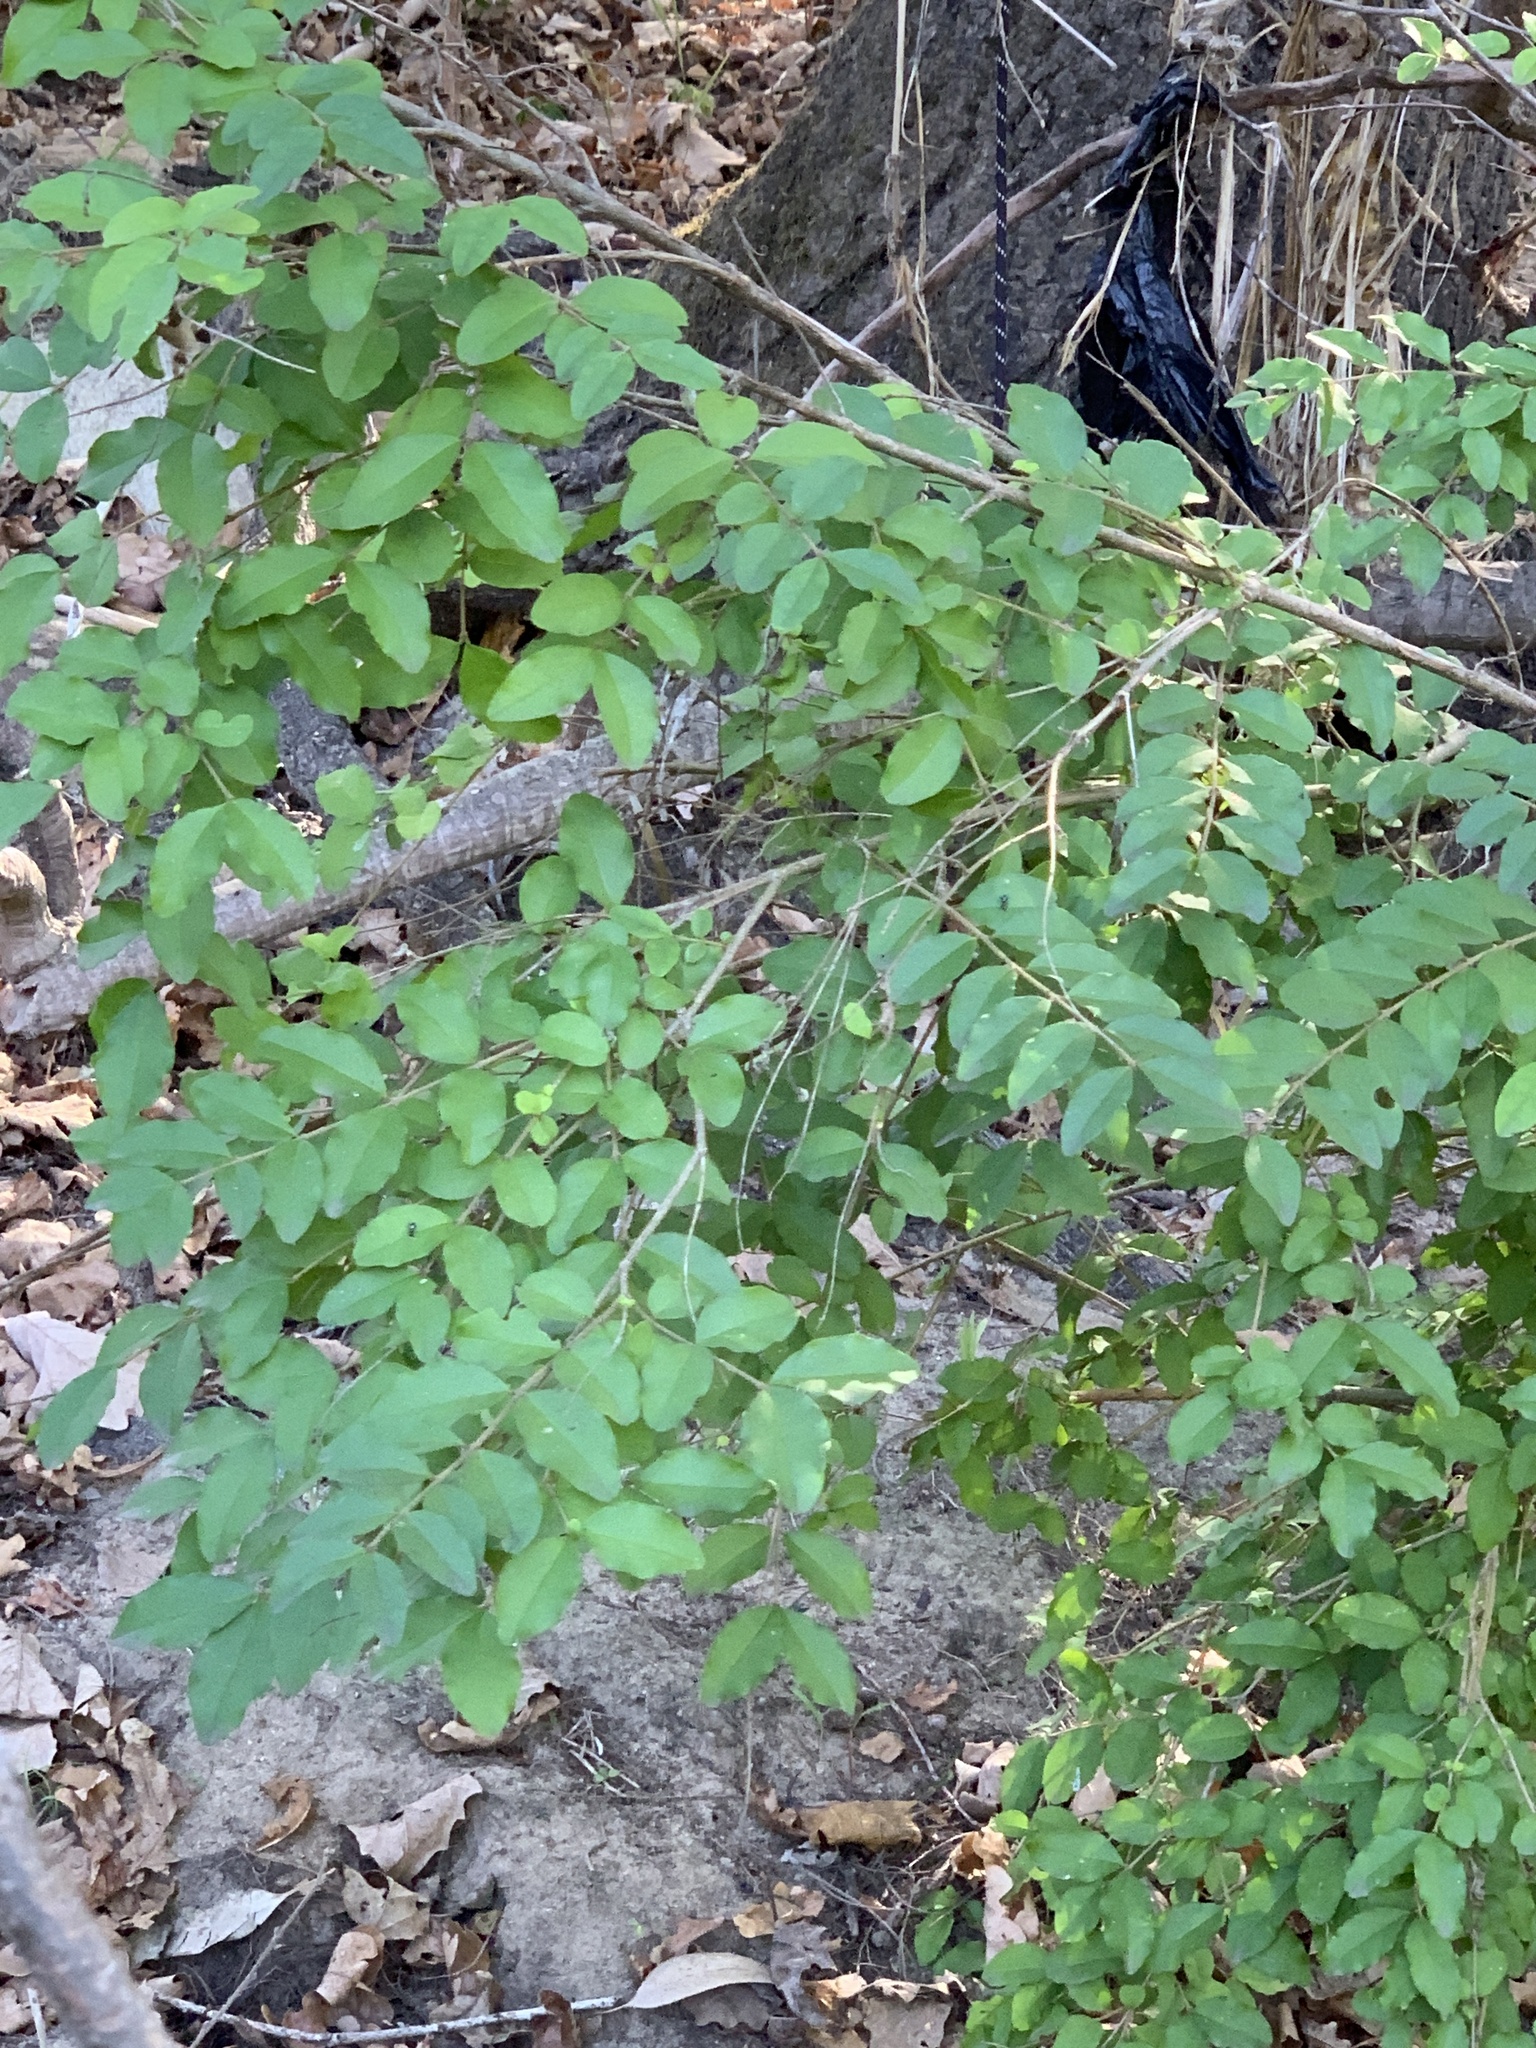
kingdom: Plantae
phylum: Tracheophyta
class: Magnoliopsida
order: Lamiales
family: Oleaceae
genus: Ligustrum
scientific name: Ligustrum sinense
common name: Chinese privet
